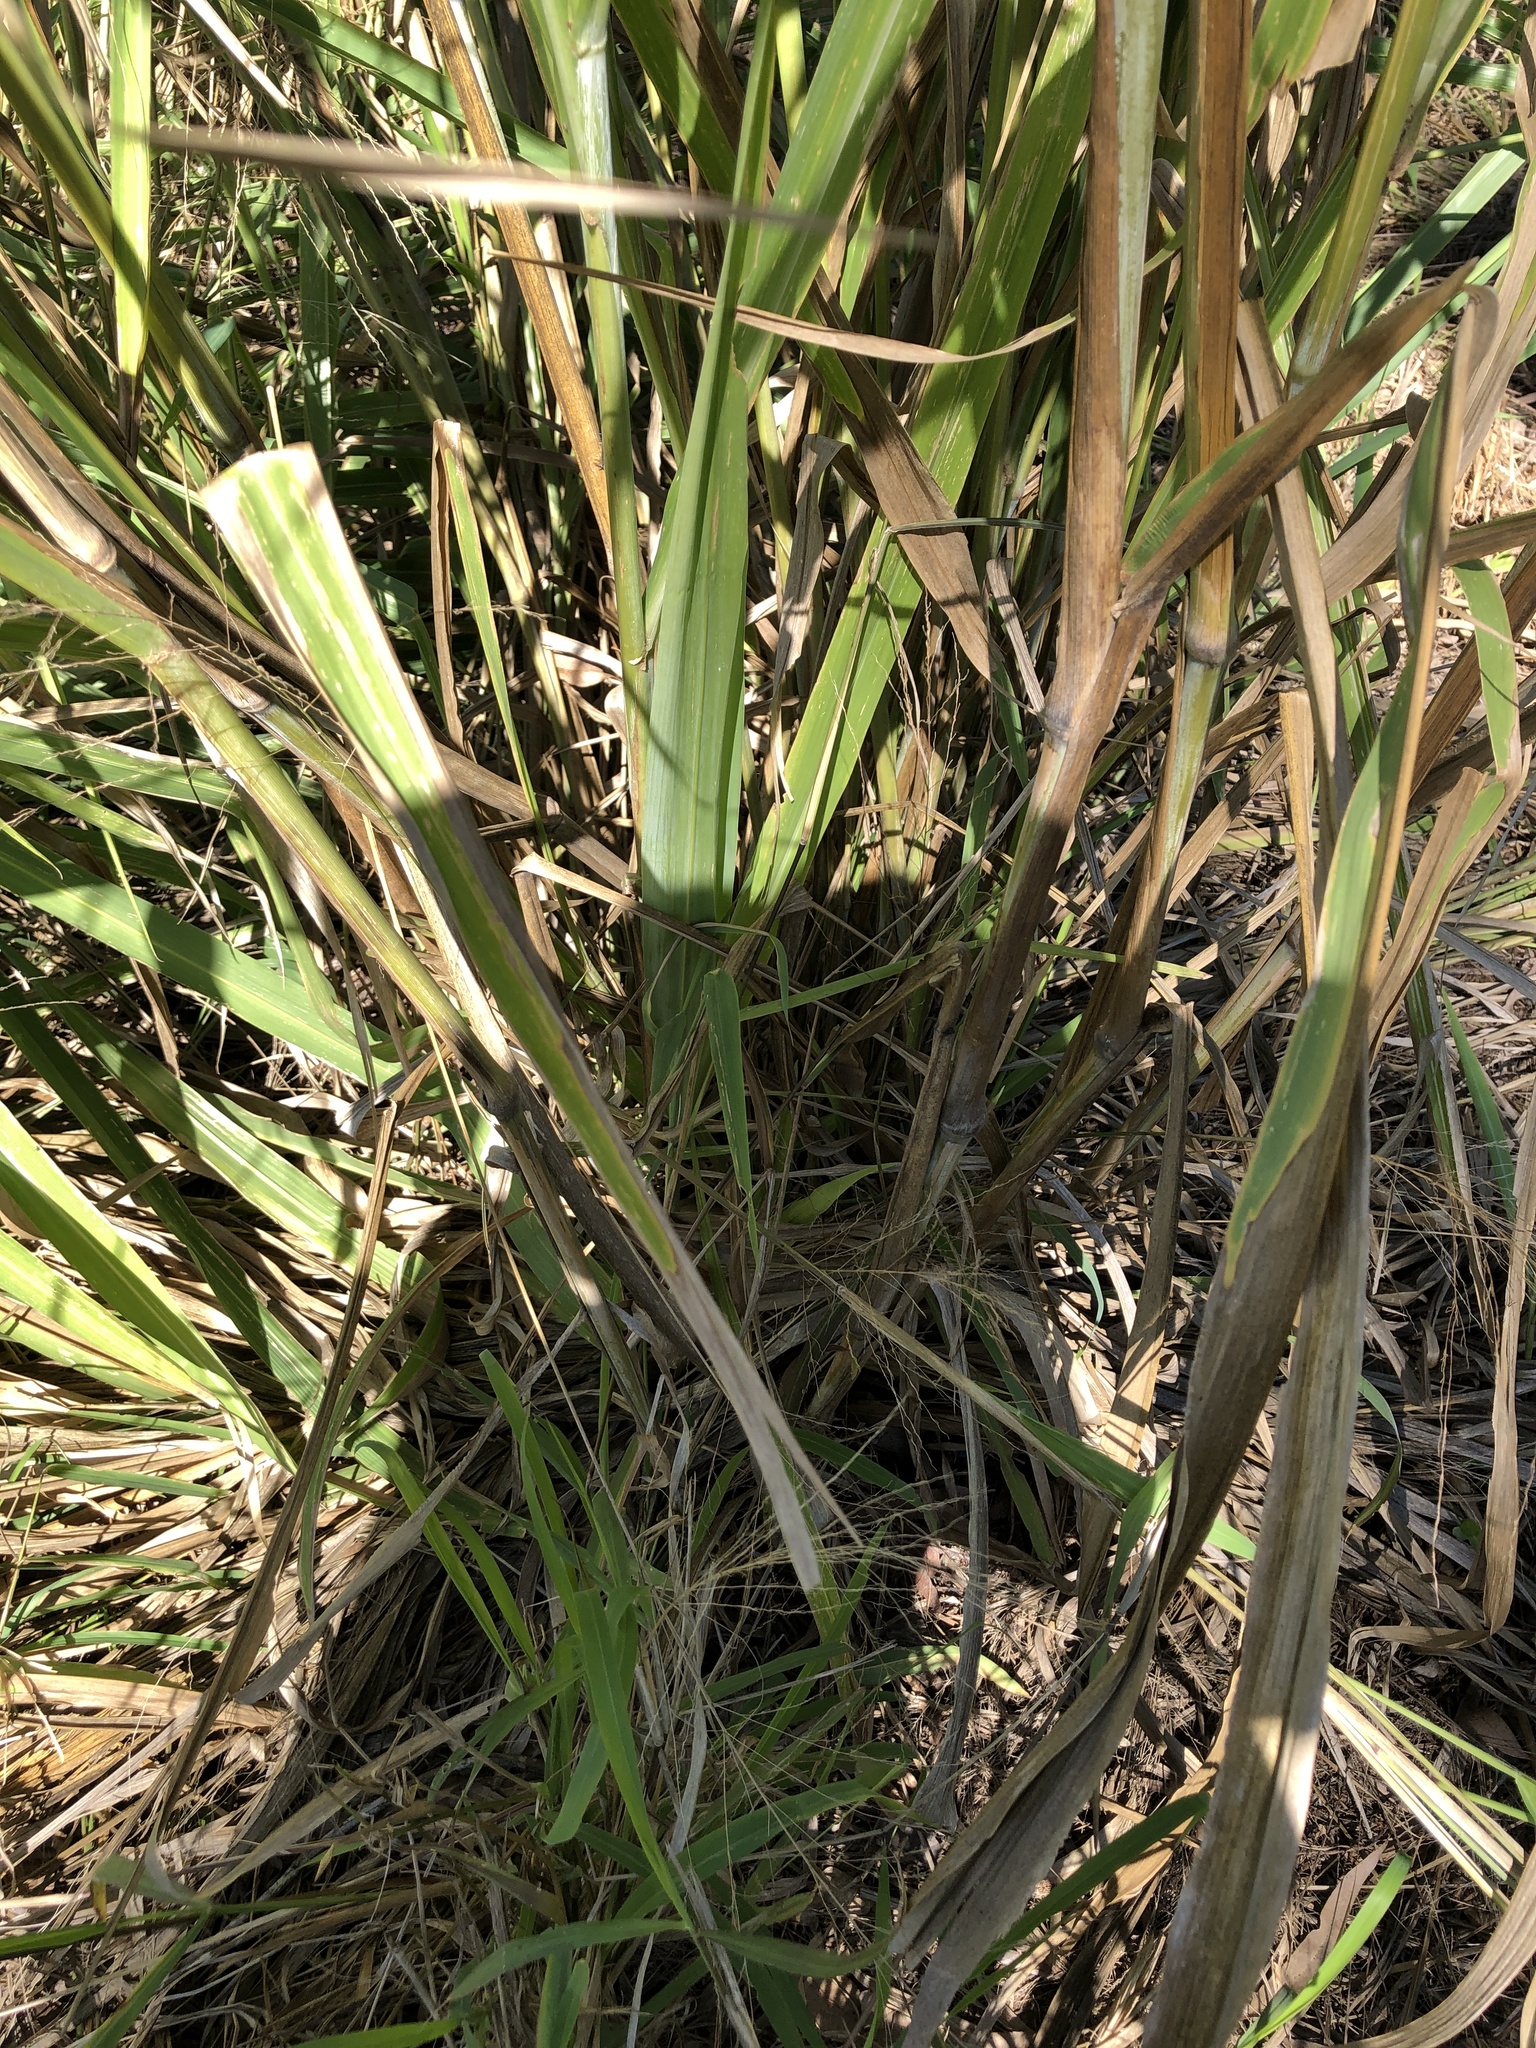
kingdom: Plantae
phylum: Tracheophyta
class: Liliopsida
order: Poales
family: Poaceae
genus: Megathyrsus
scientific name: Megathyrsus maximus
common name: Guineagrass
